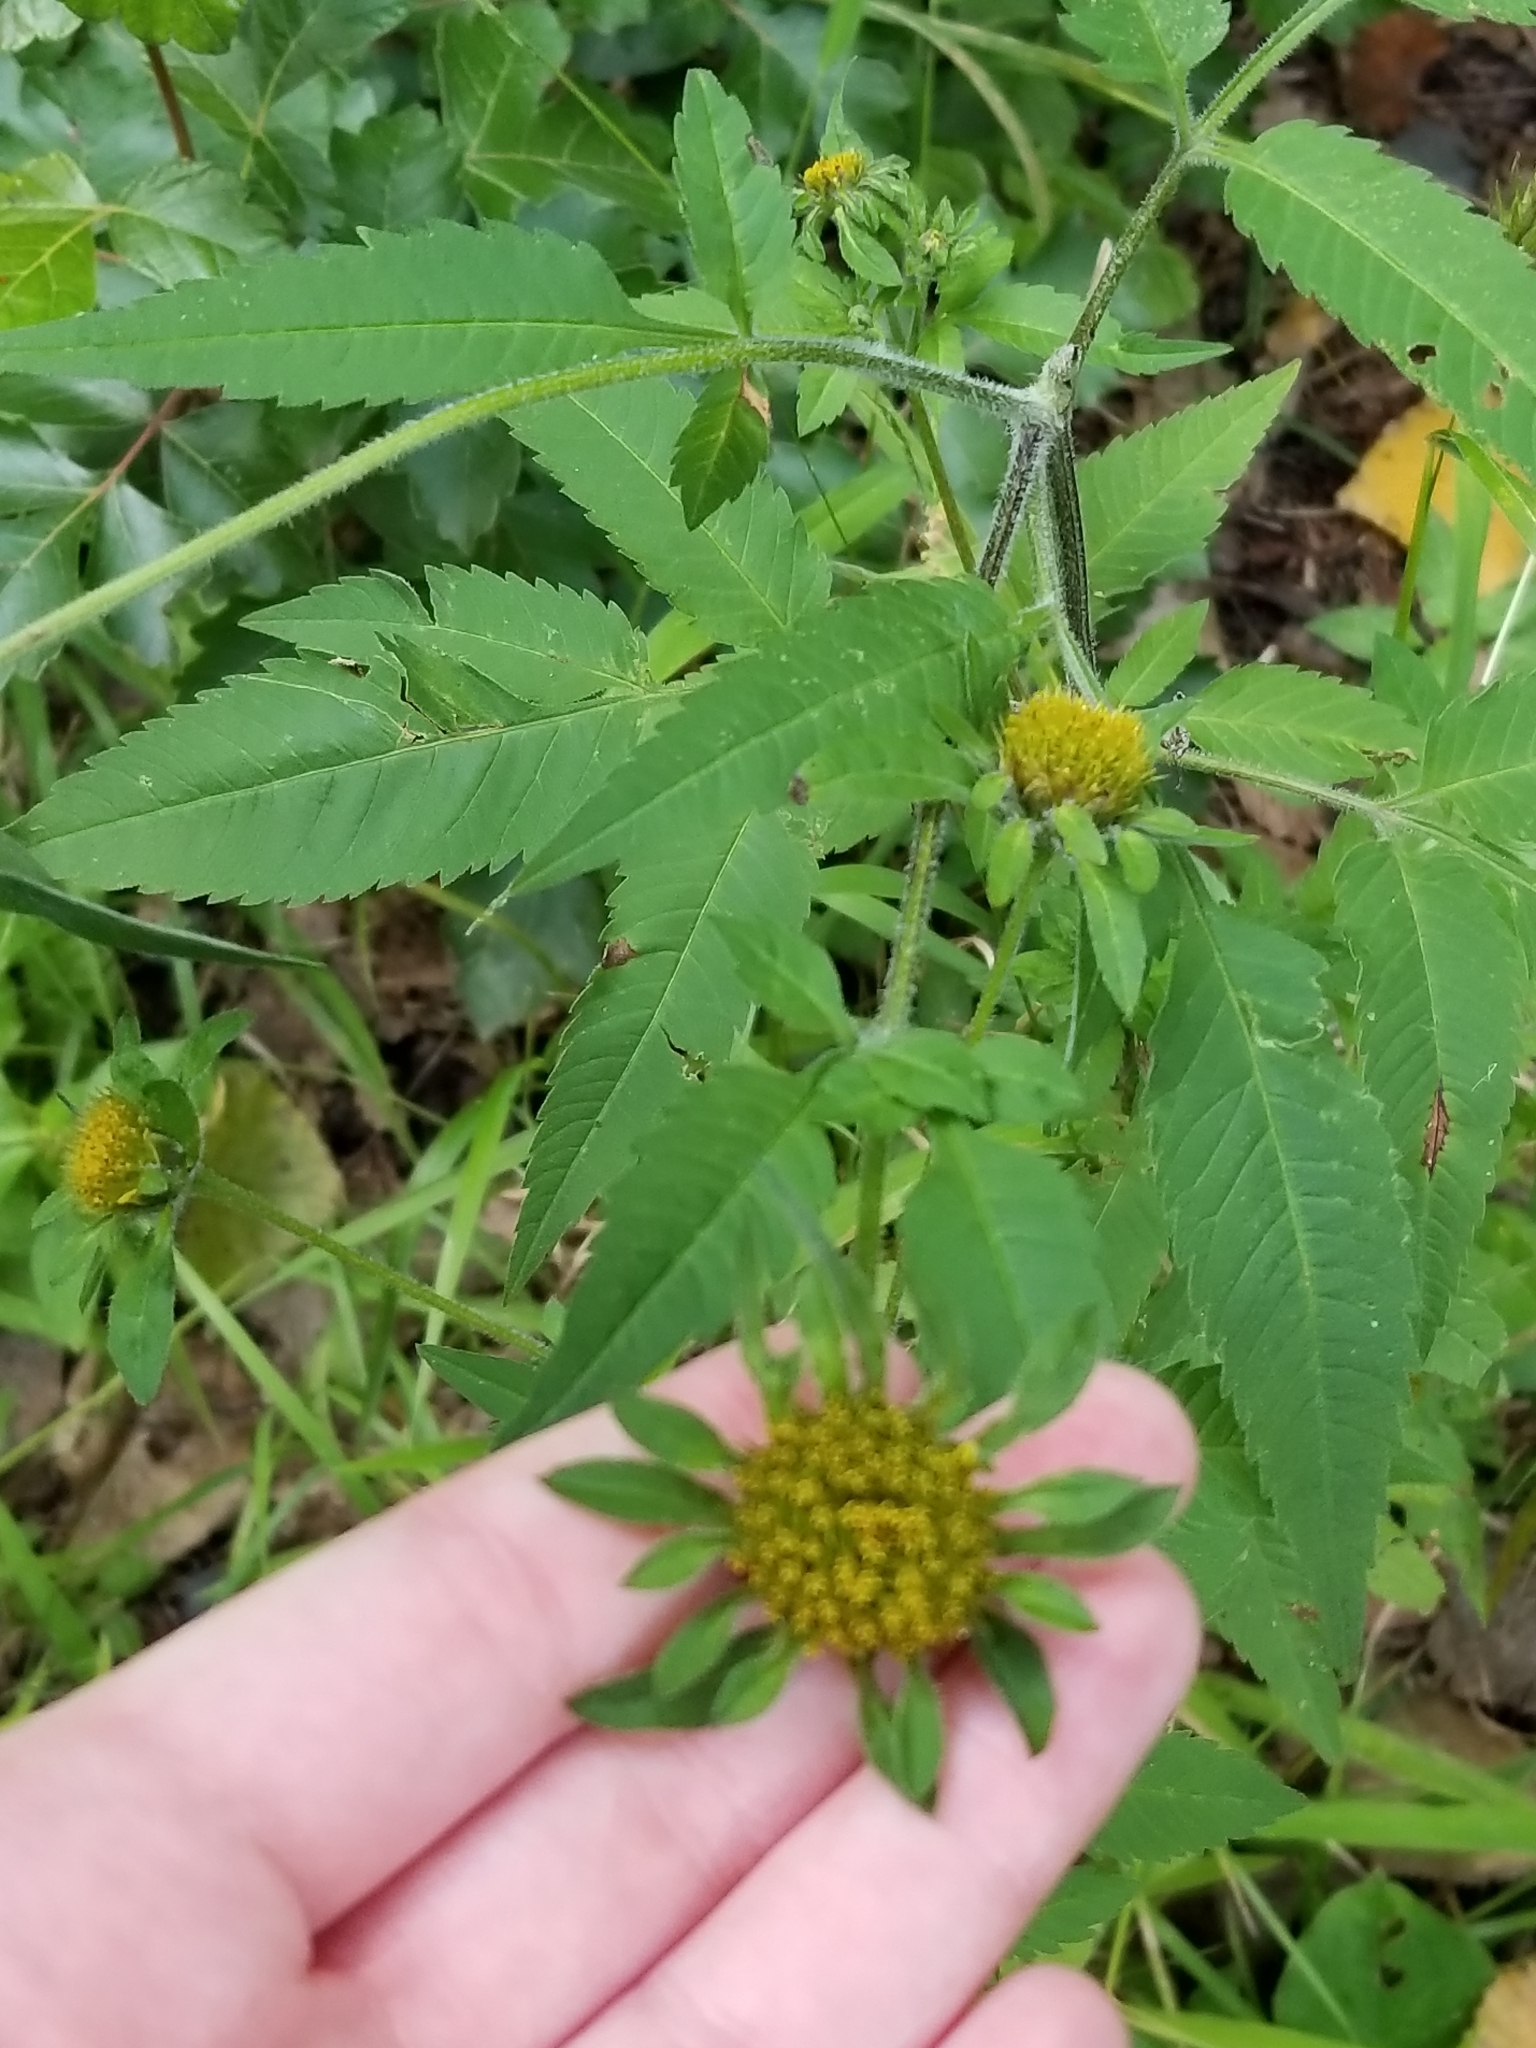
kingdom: Plantae
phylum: Tracheophyta
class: Magnoliopsida
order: Asterales
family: Asteraceae
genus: Bidens
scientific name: Bidens vulgata
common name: Tall beggarticks
